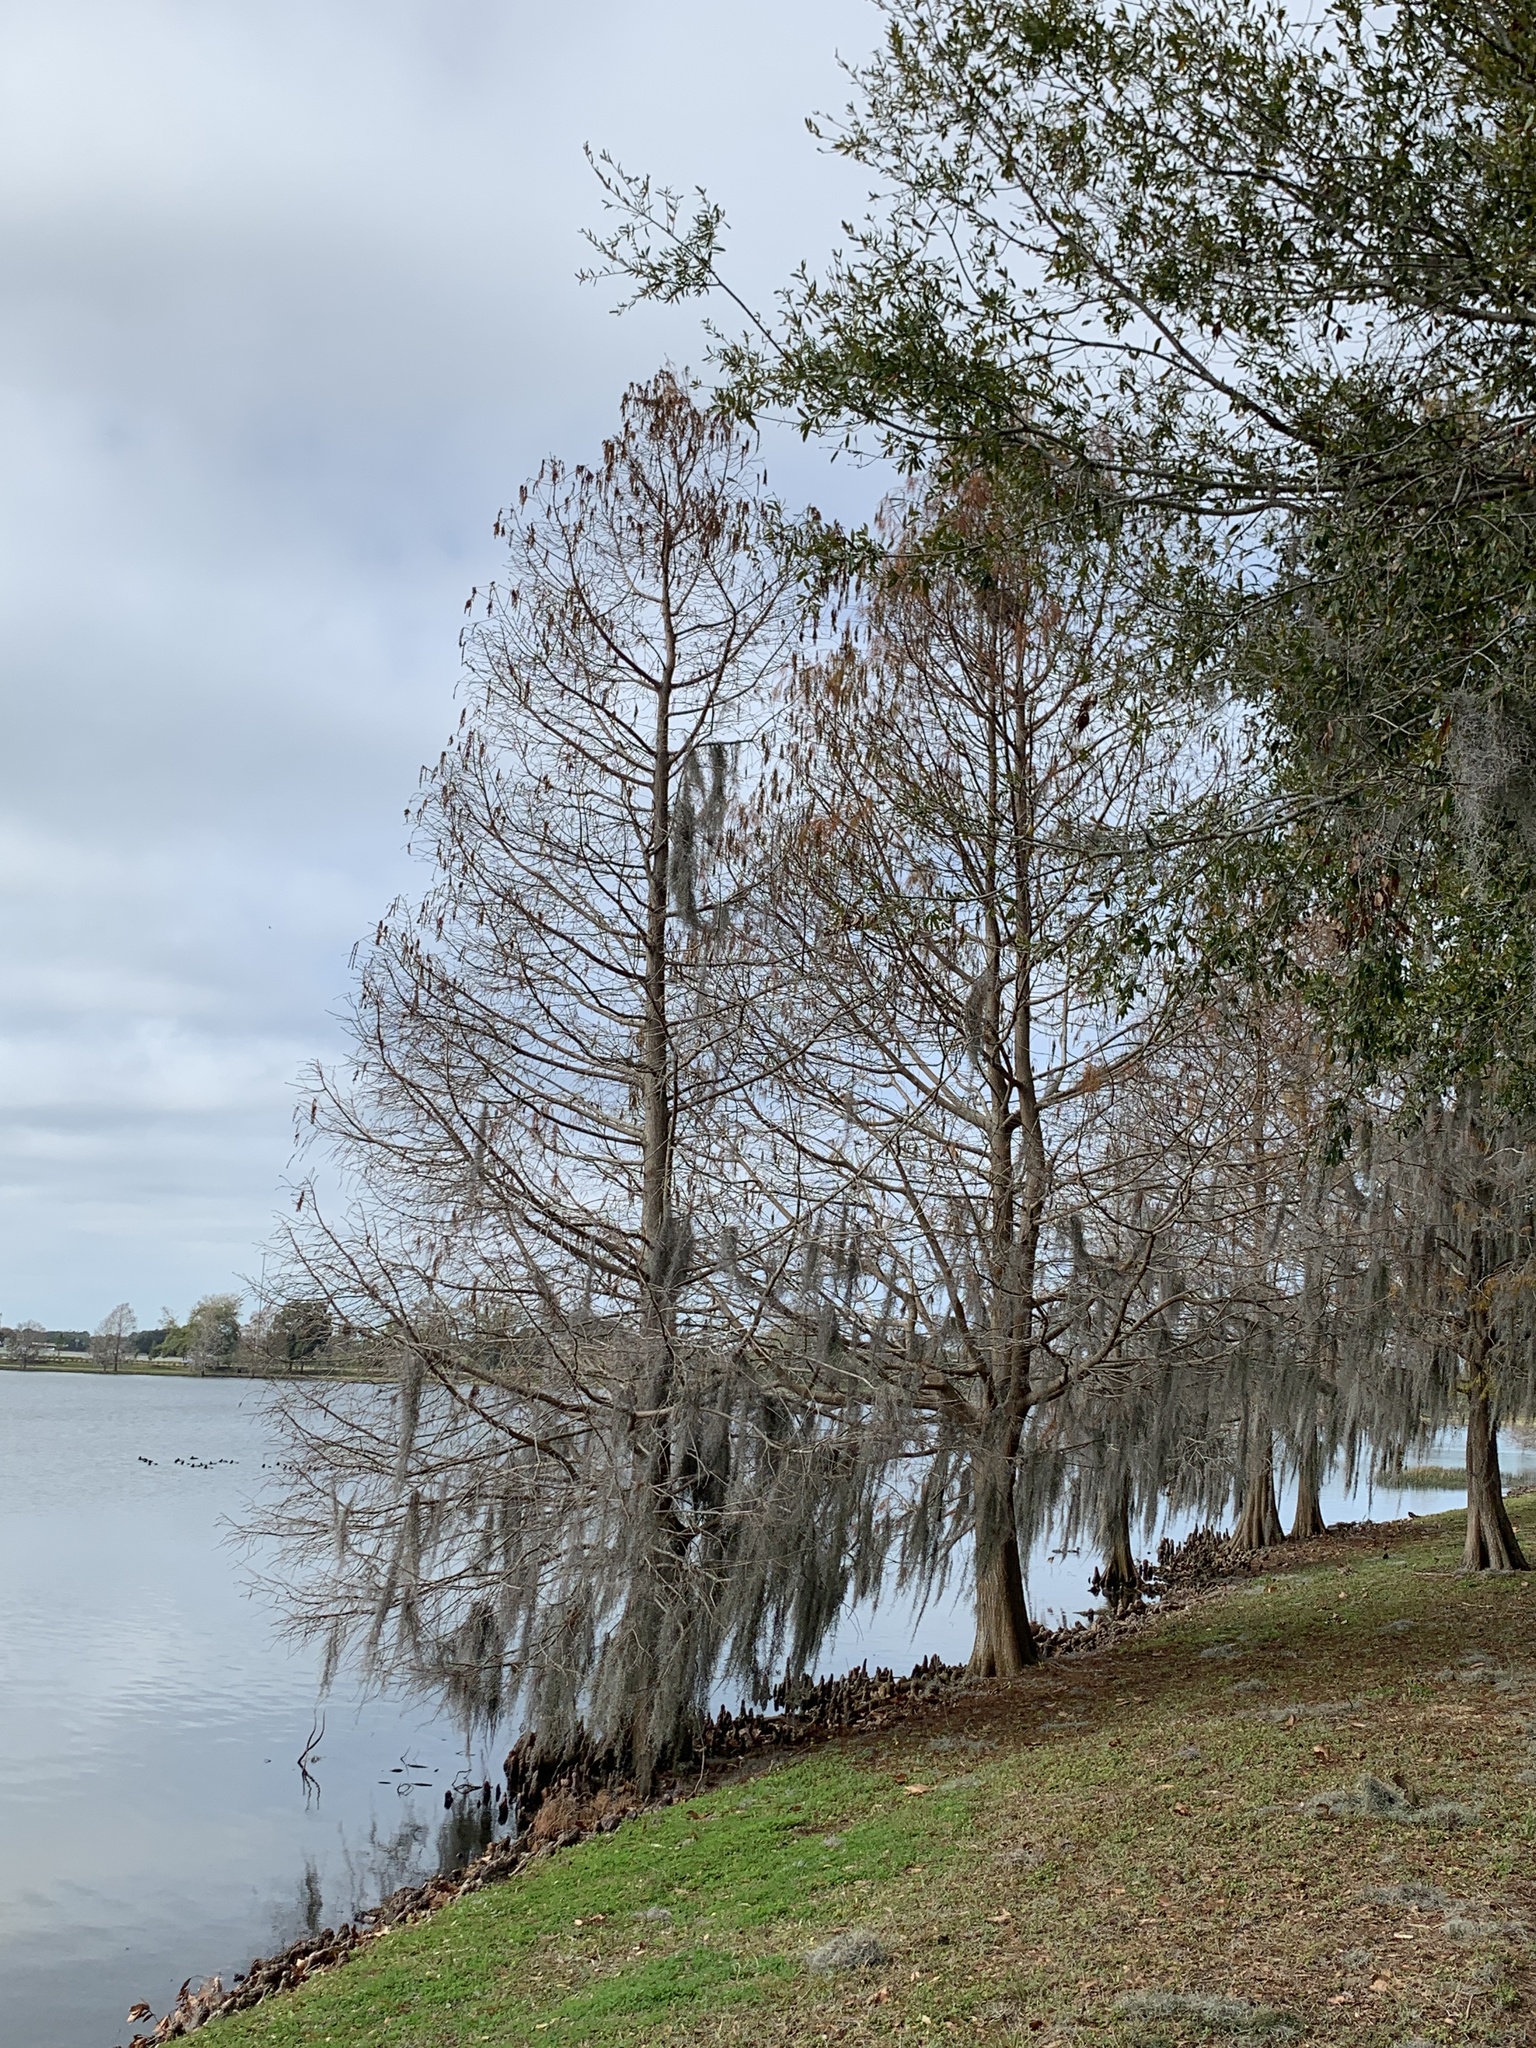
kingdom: Plantae
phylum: Tracheophyta
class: Pinopsida
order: Pinales
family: Cupressaceae
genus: Taxodium
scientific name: Taxodium distichum
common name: Bald cypress
